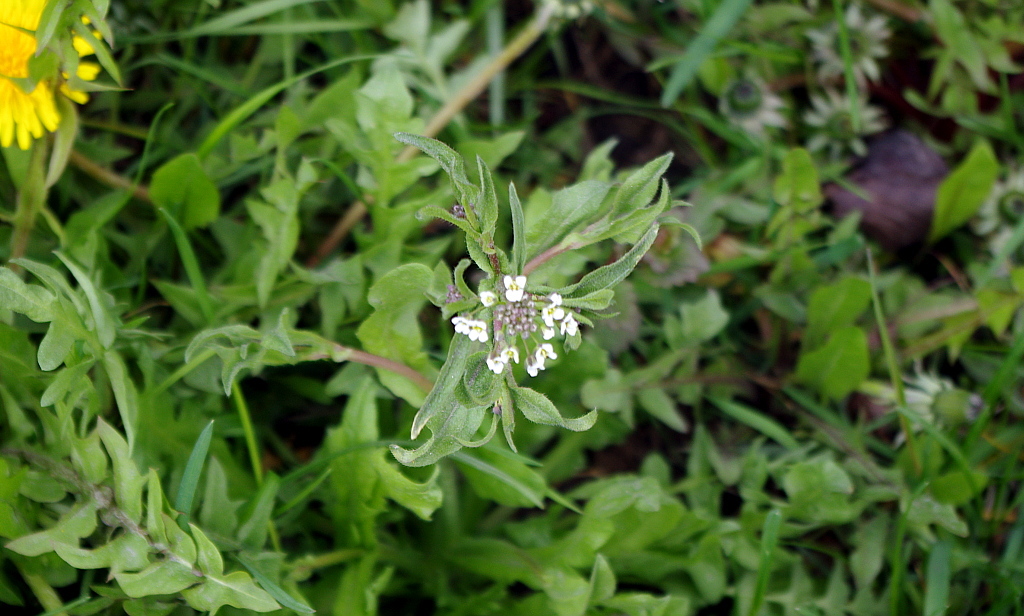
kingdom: Plantae
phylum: Tracheophyta
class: Magnoliopsida
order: Brassicales
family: Brassicaceae
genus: Capsella
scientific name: Capsella bursa-pastoris
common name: Shepherd's purse
